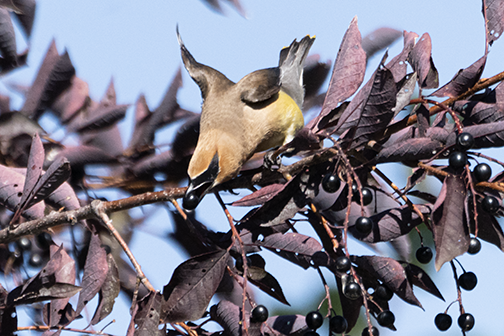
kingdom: Animalia
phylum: Chordata
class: Aves
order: Passeriformes
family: Bombycillidae
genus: Bombycilla
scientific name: Bombycilla cedrorum
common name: Cedar waxwing
